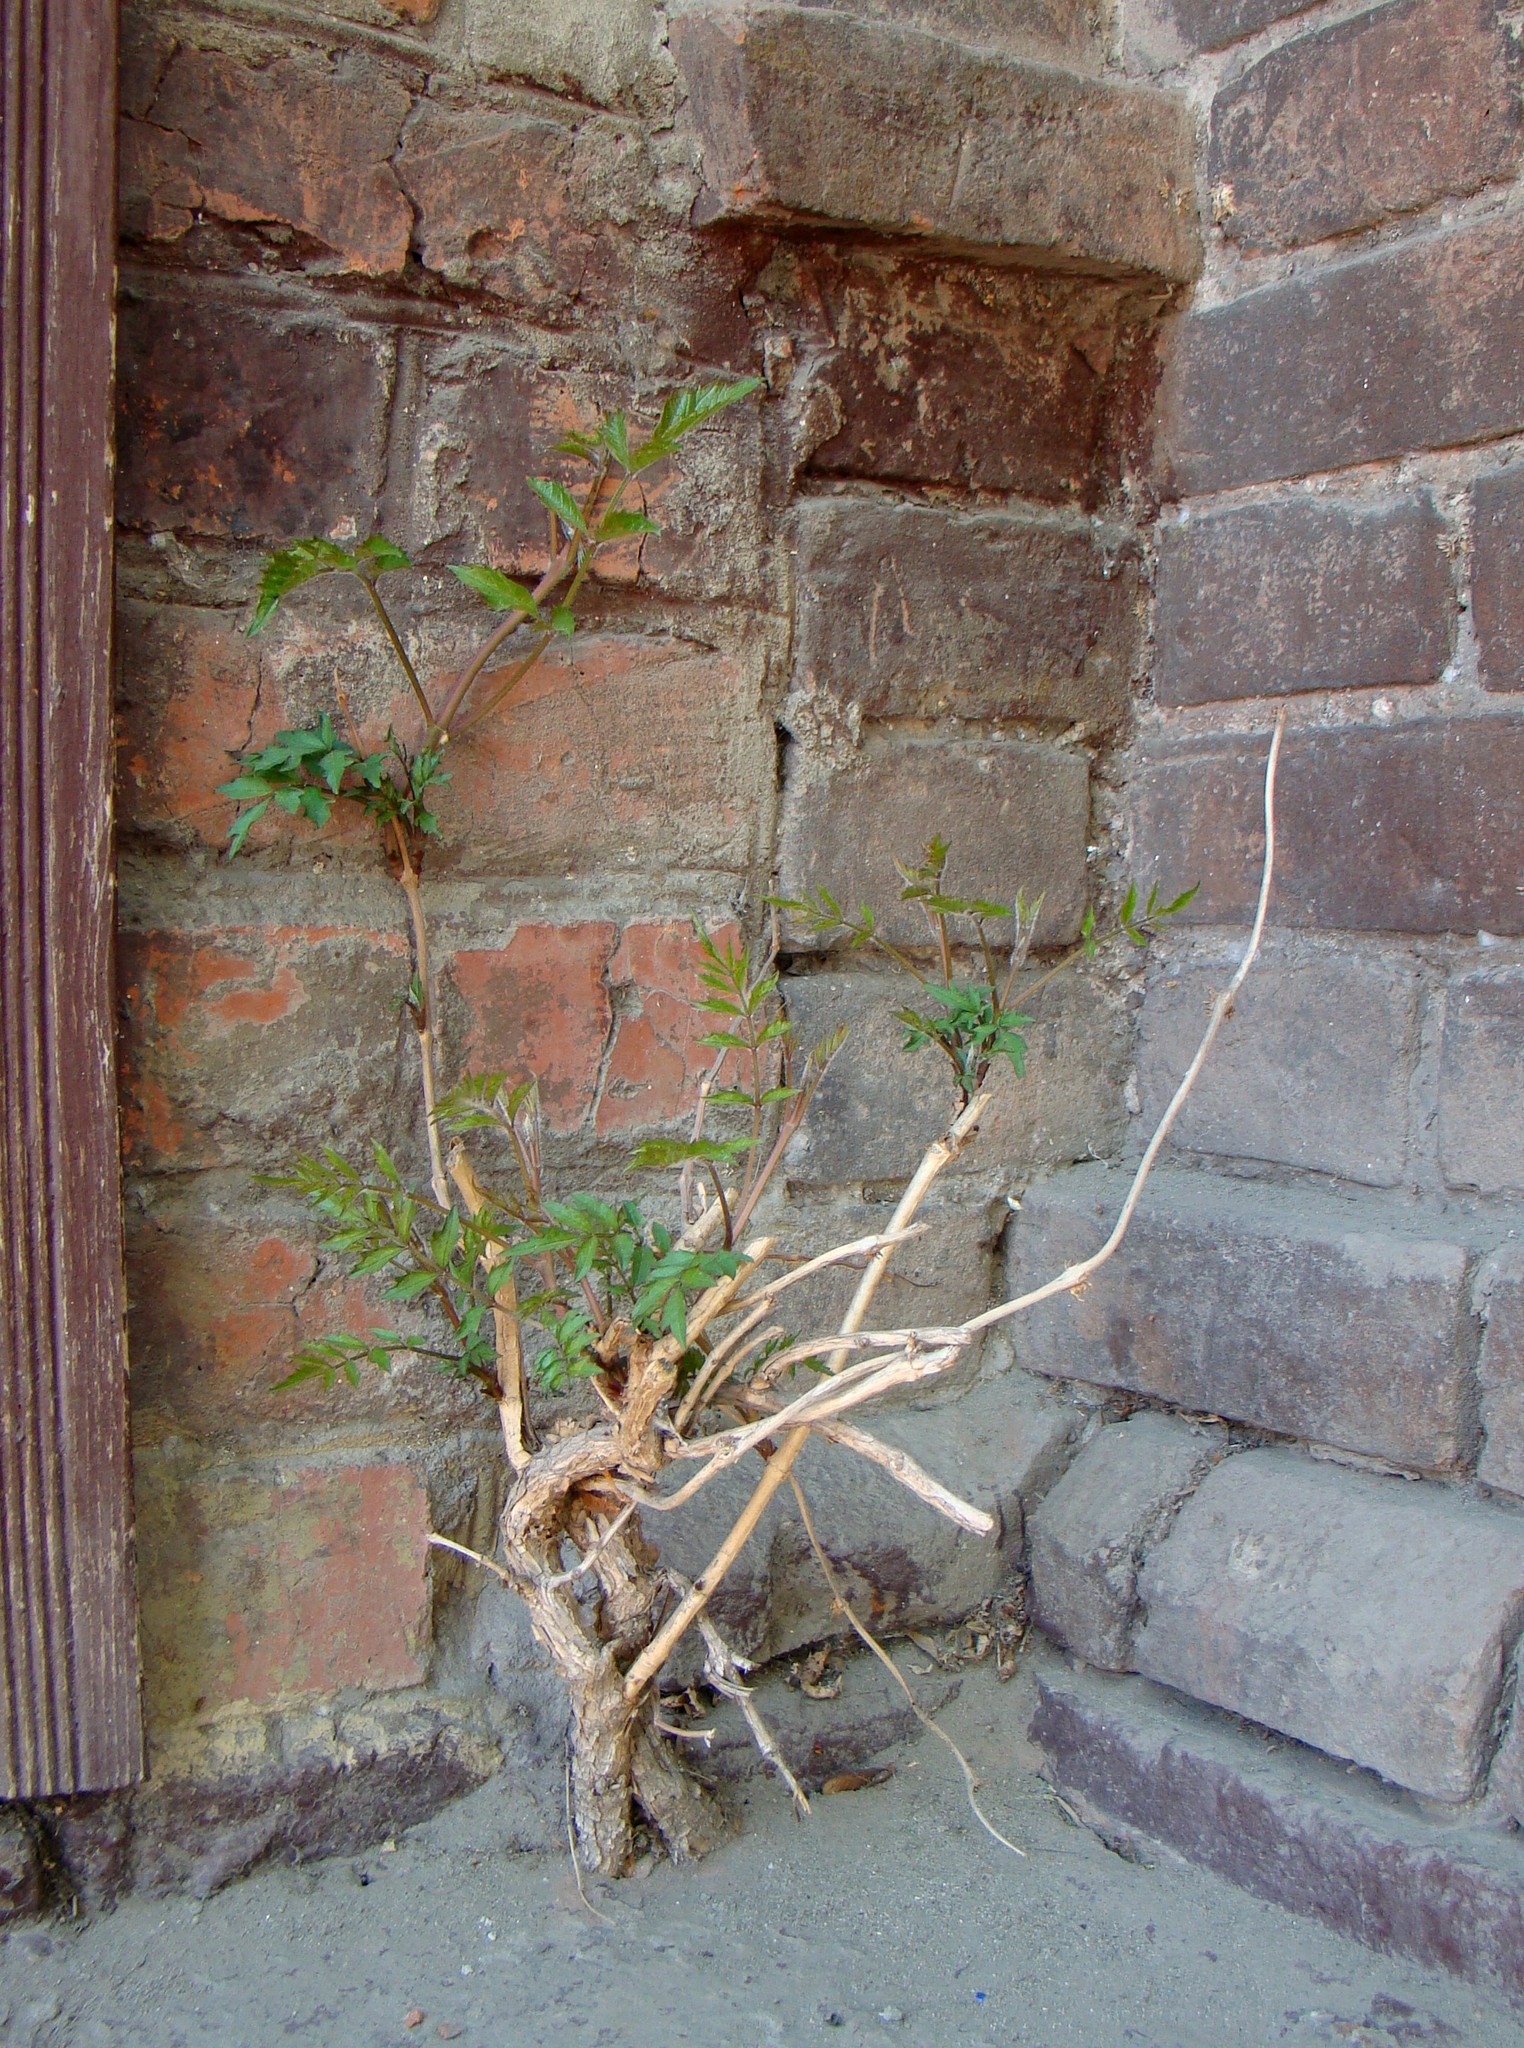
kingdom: Plantae
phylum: Tracheophyta
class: Magnoliopsida
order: Lamiales
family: Bignoniaceae
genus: Campsis
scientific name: Campsis radicans
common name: Trumpet-creeper
